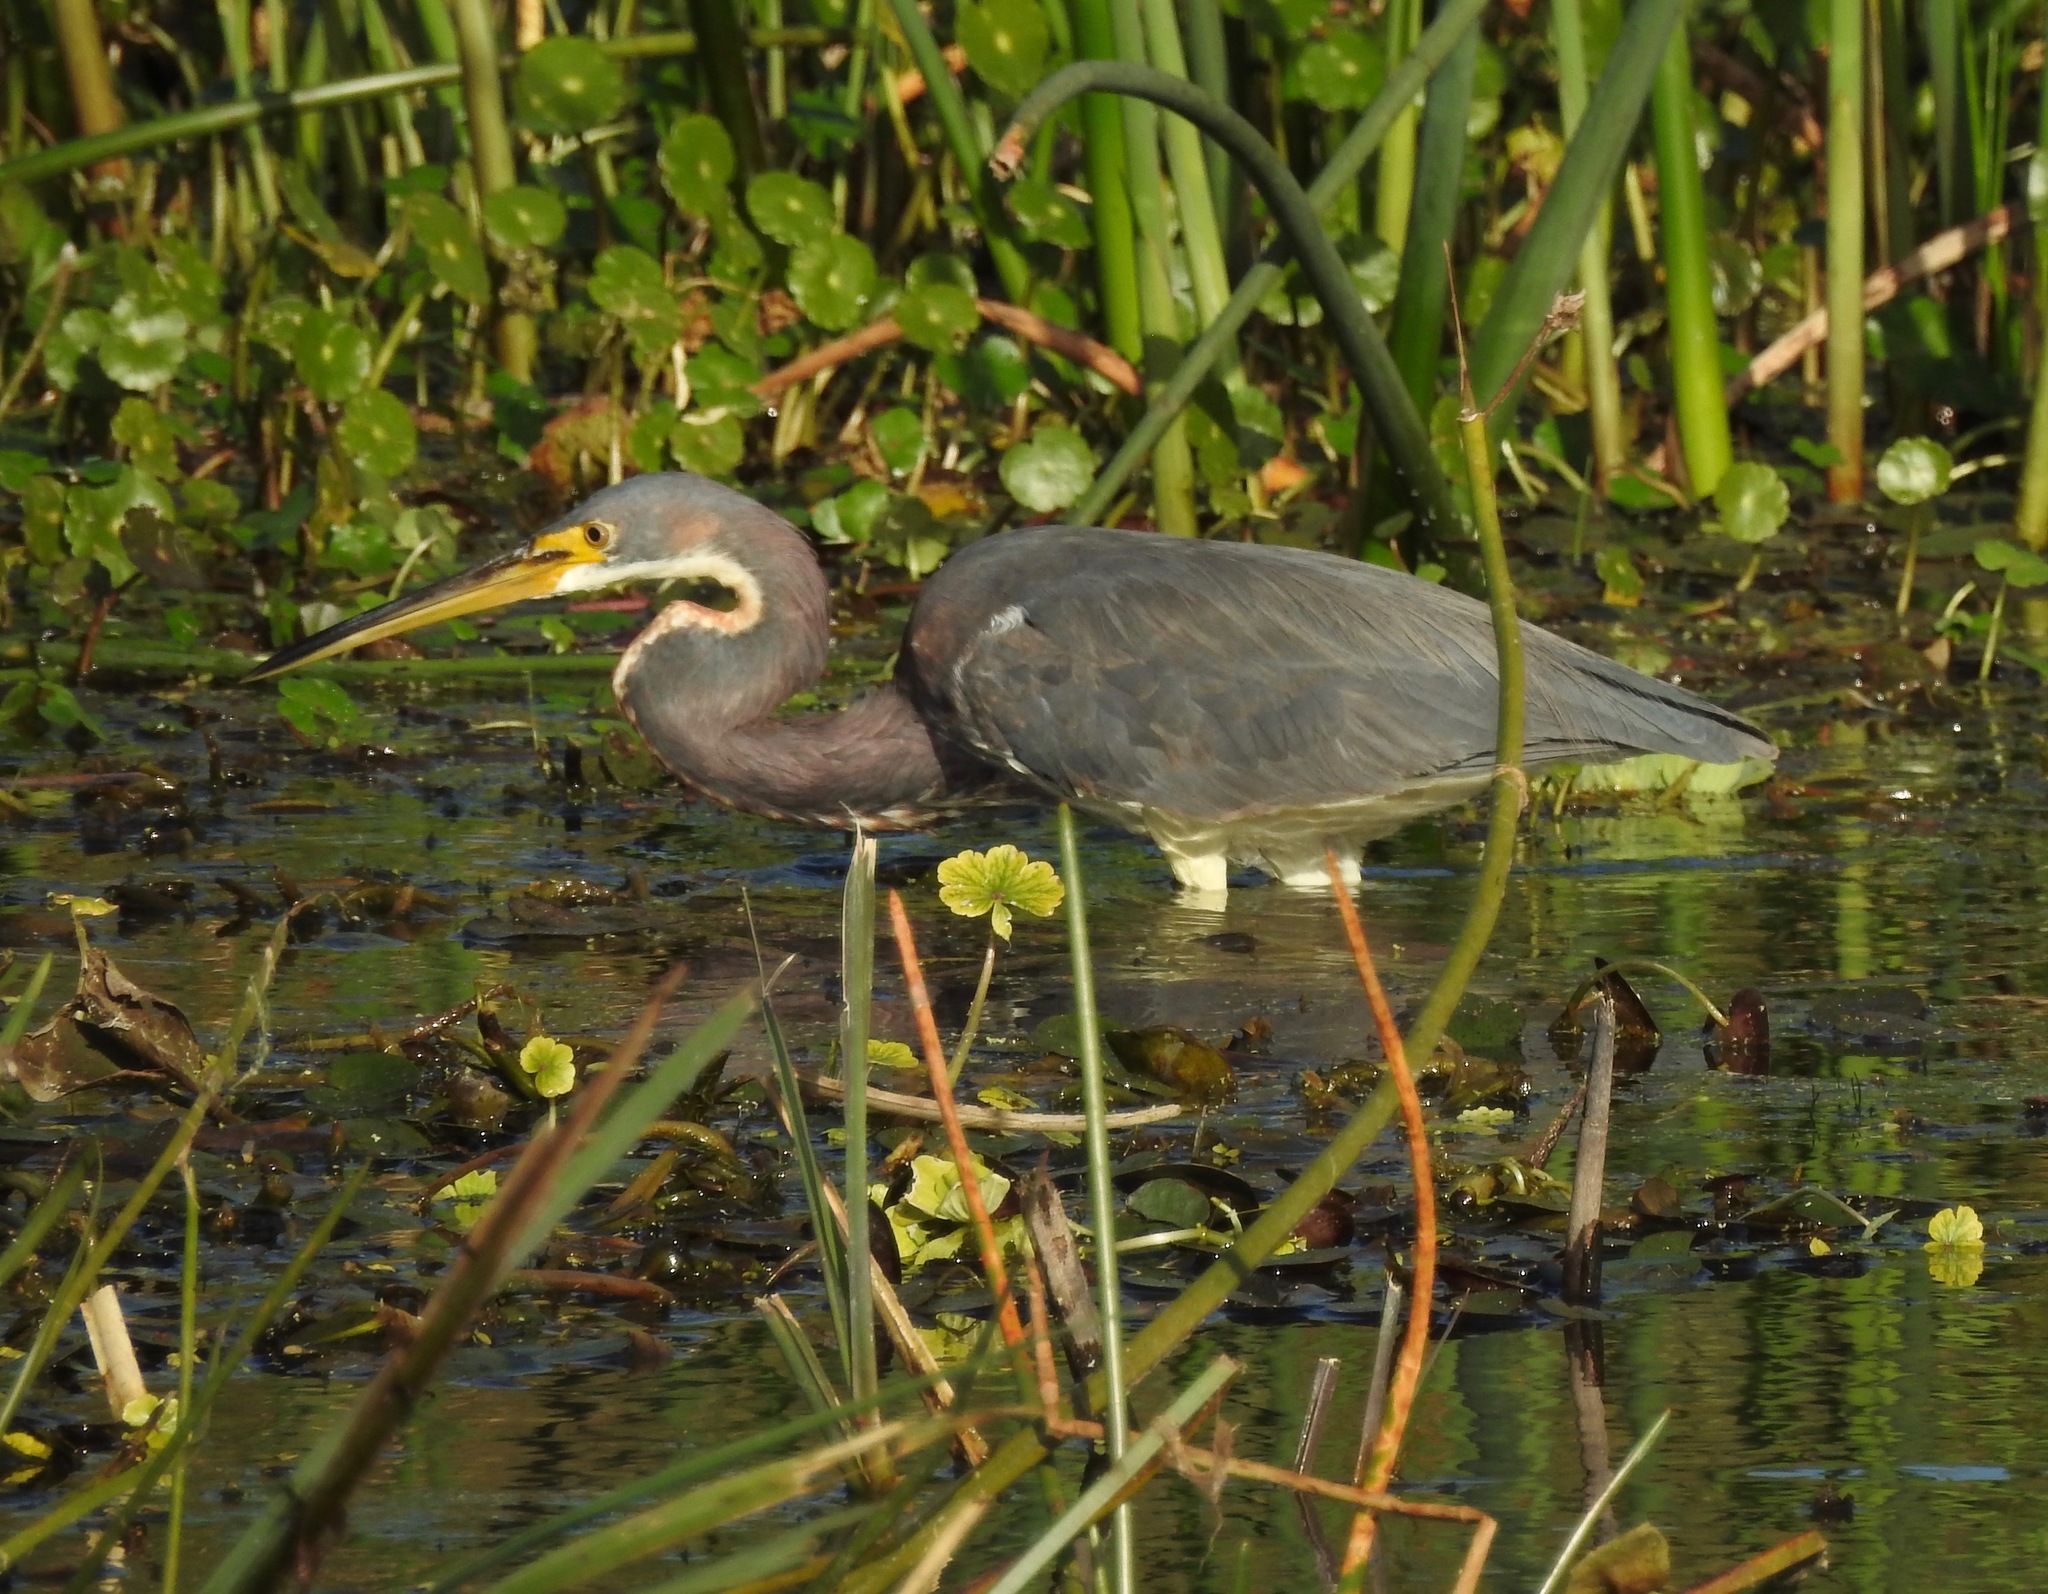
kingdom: Animalia
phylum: Chordata
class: Aves
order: Pelecaniformes
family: Ardeidae
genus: Egretta
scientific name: Egretta tricolor
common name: Tricolored heron
